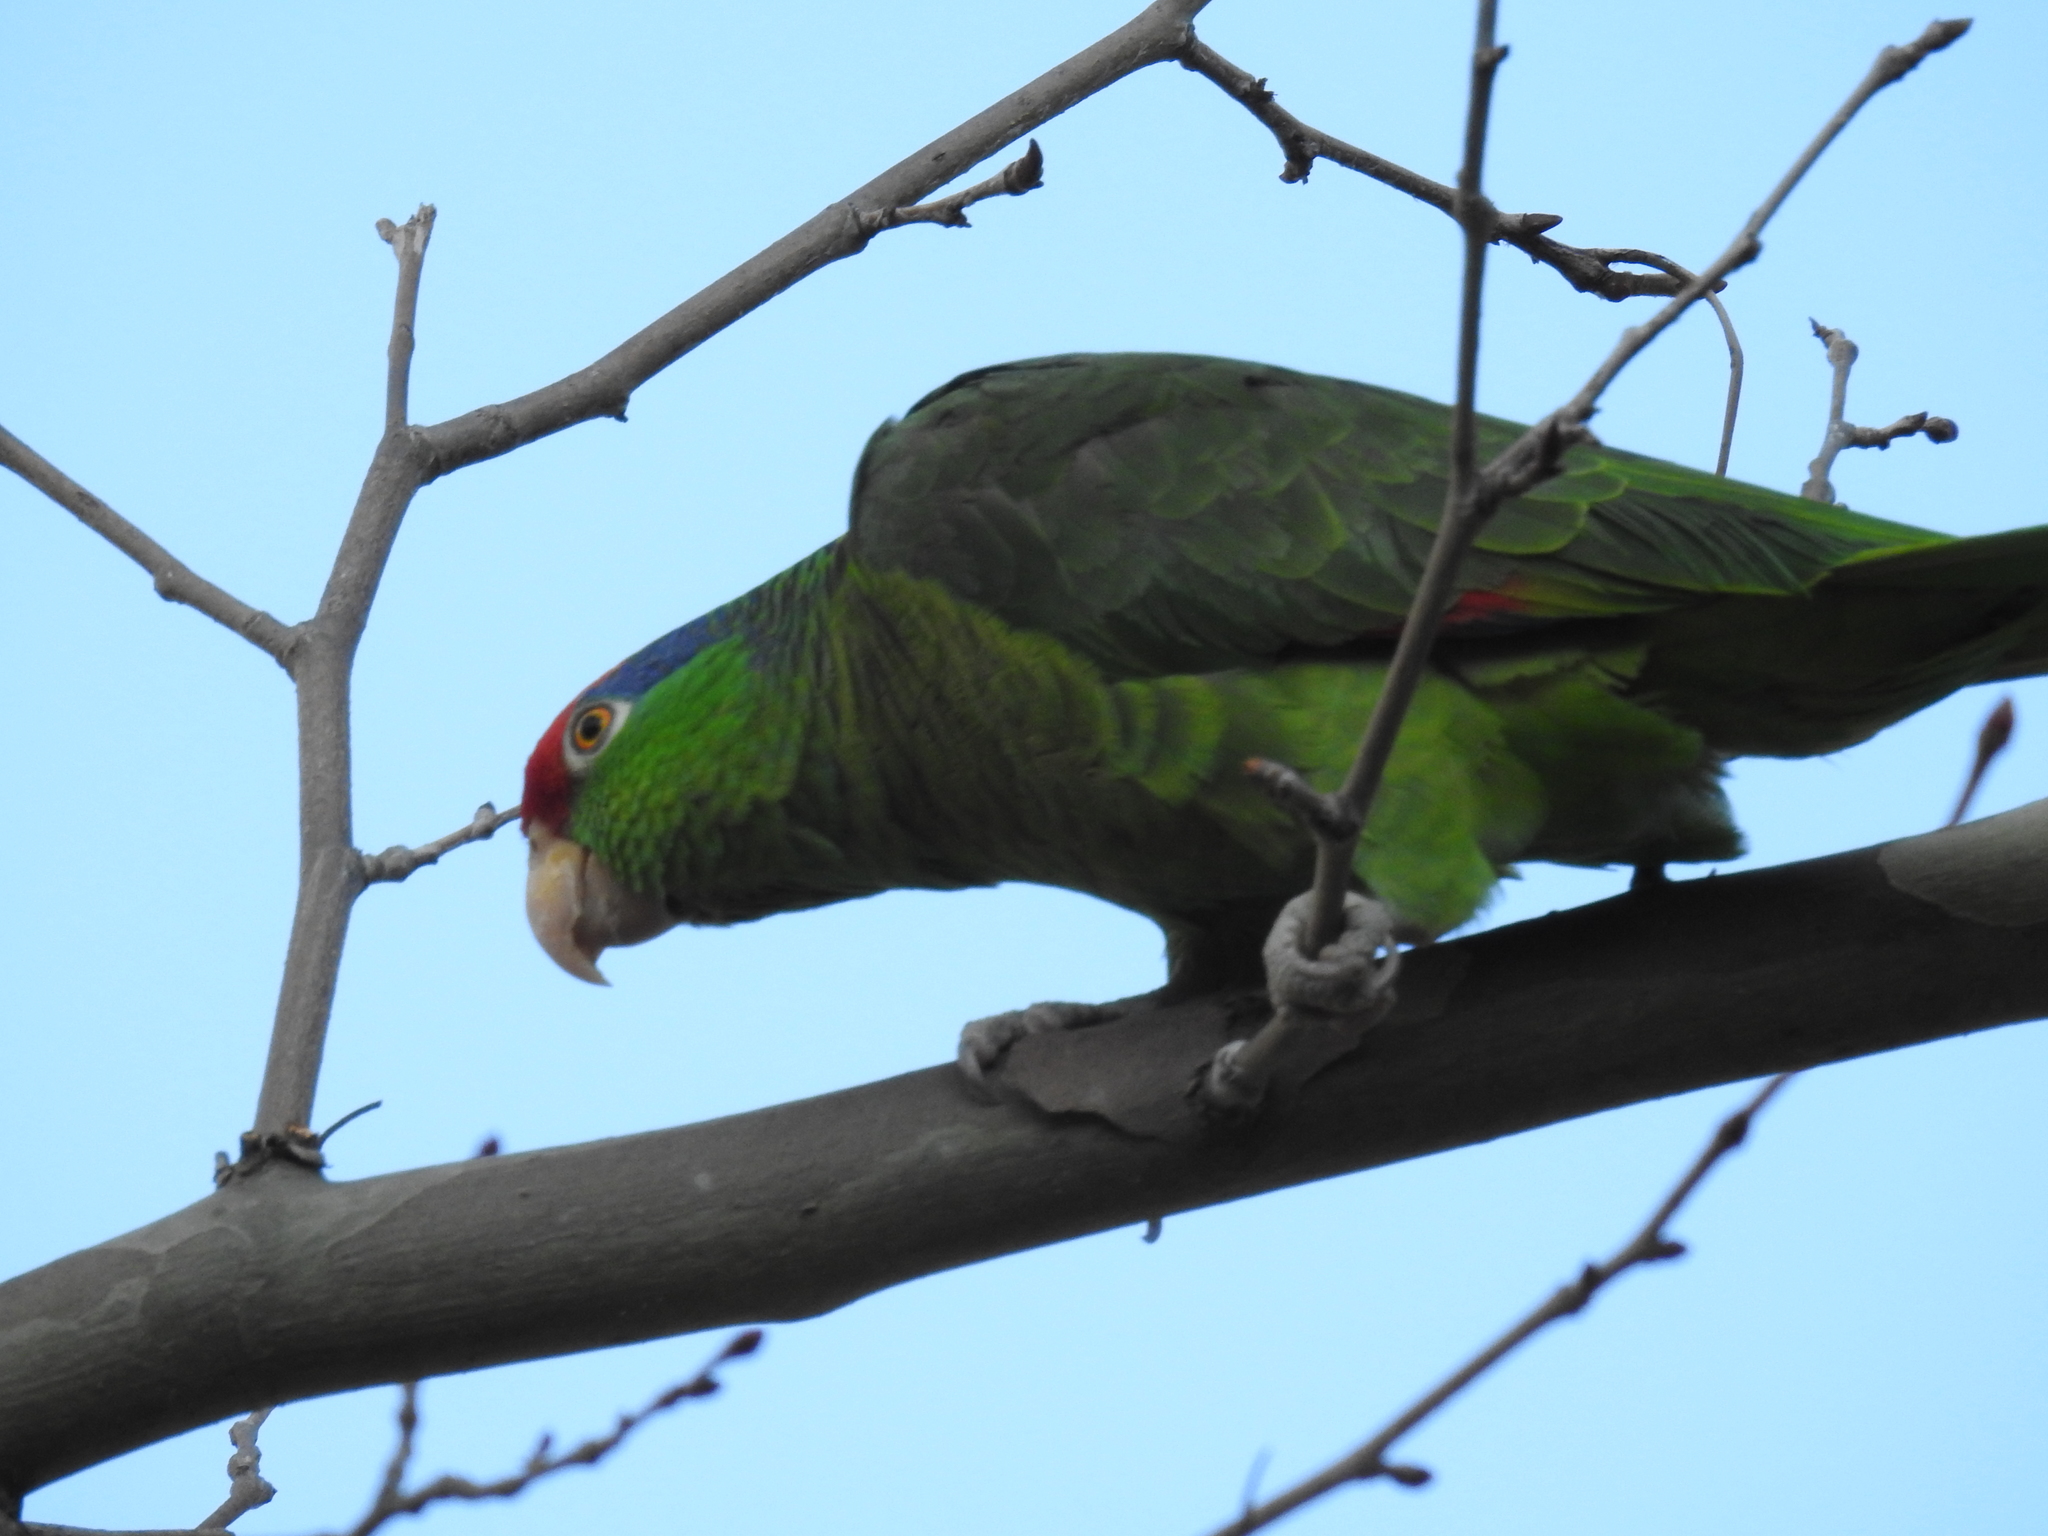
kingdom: Animalia
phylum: Chordata
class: Aves
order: Psittaciformes
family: Psittacidae
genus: Amazona
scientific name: Amazona viridigenalis
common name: Red-crowned amazon
